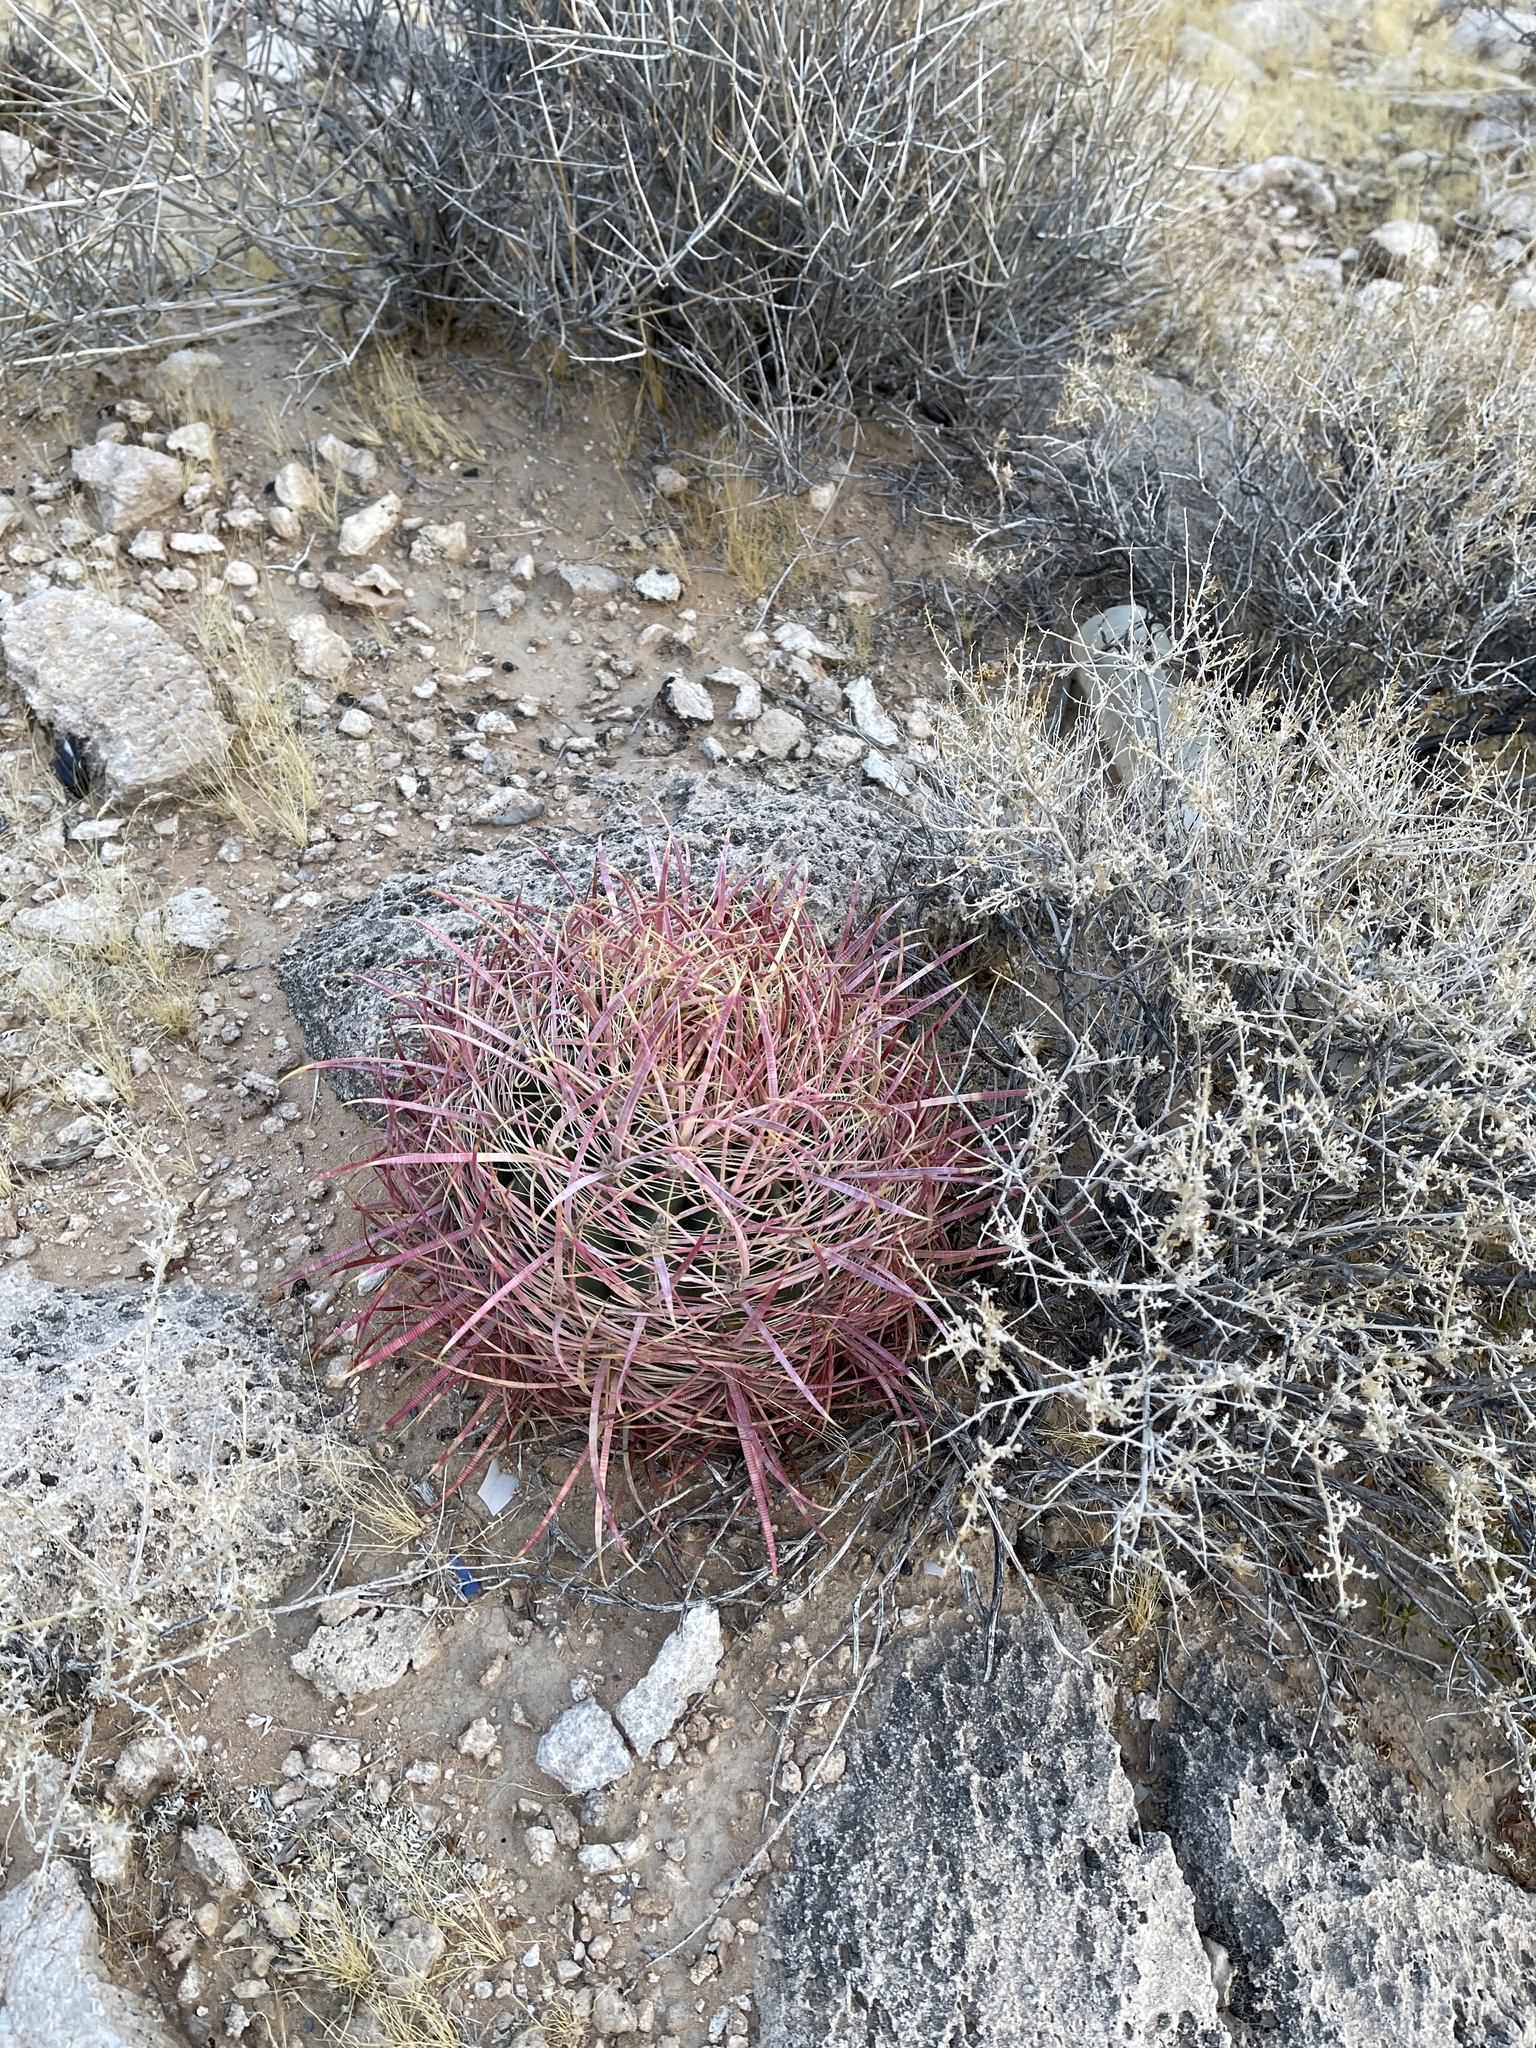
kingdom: Plantae
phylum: Tracheophyta
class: Magnoliopsida
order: Caryophyllales
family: Cactaceae
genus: Ferocactus
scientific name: Ferocactus cylindraceus
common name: California barrel cactus
